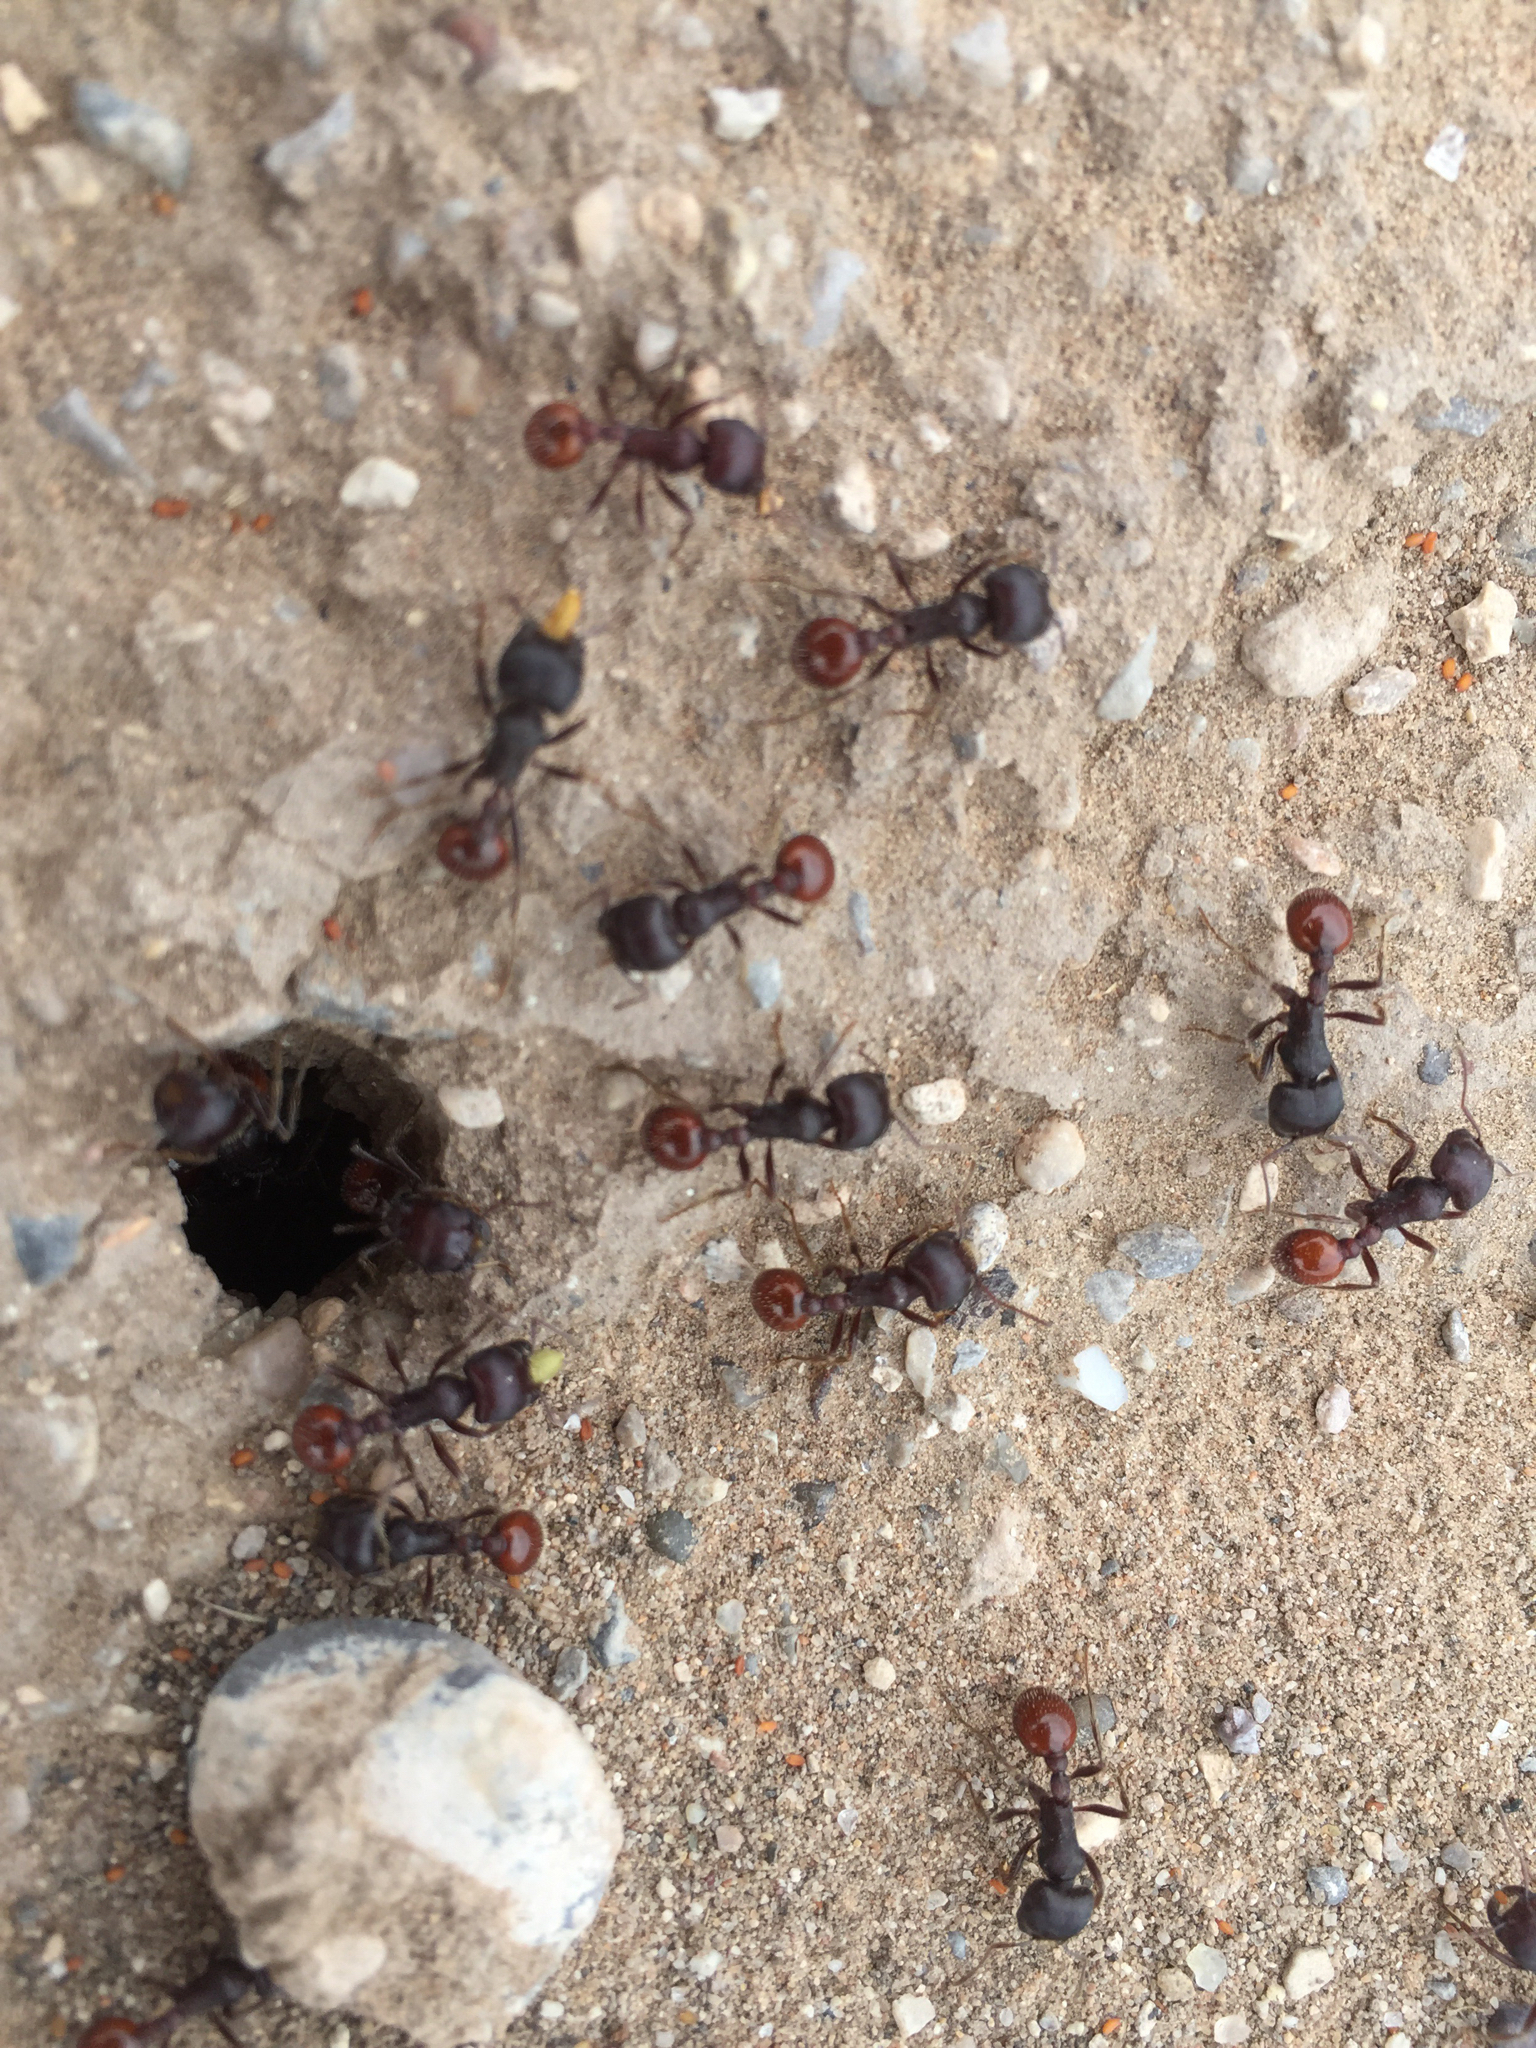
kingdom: Animalia
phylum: Arthropoda
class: Insecta
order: Hymenoptera
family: Formicidae
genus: Pogonomyrmex
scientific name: Pogonomyrmex rugosus
